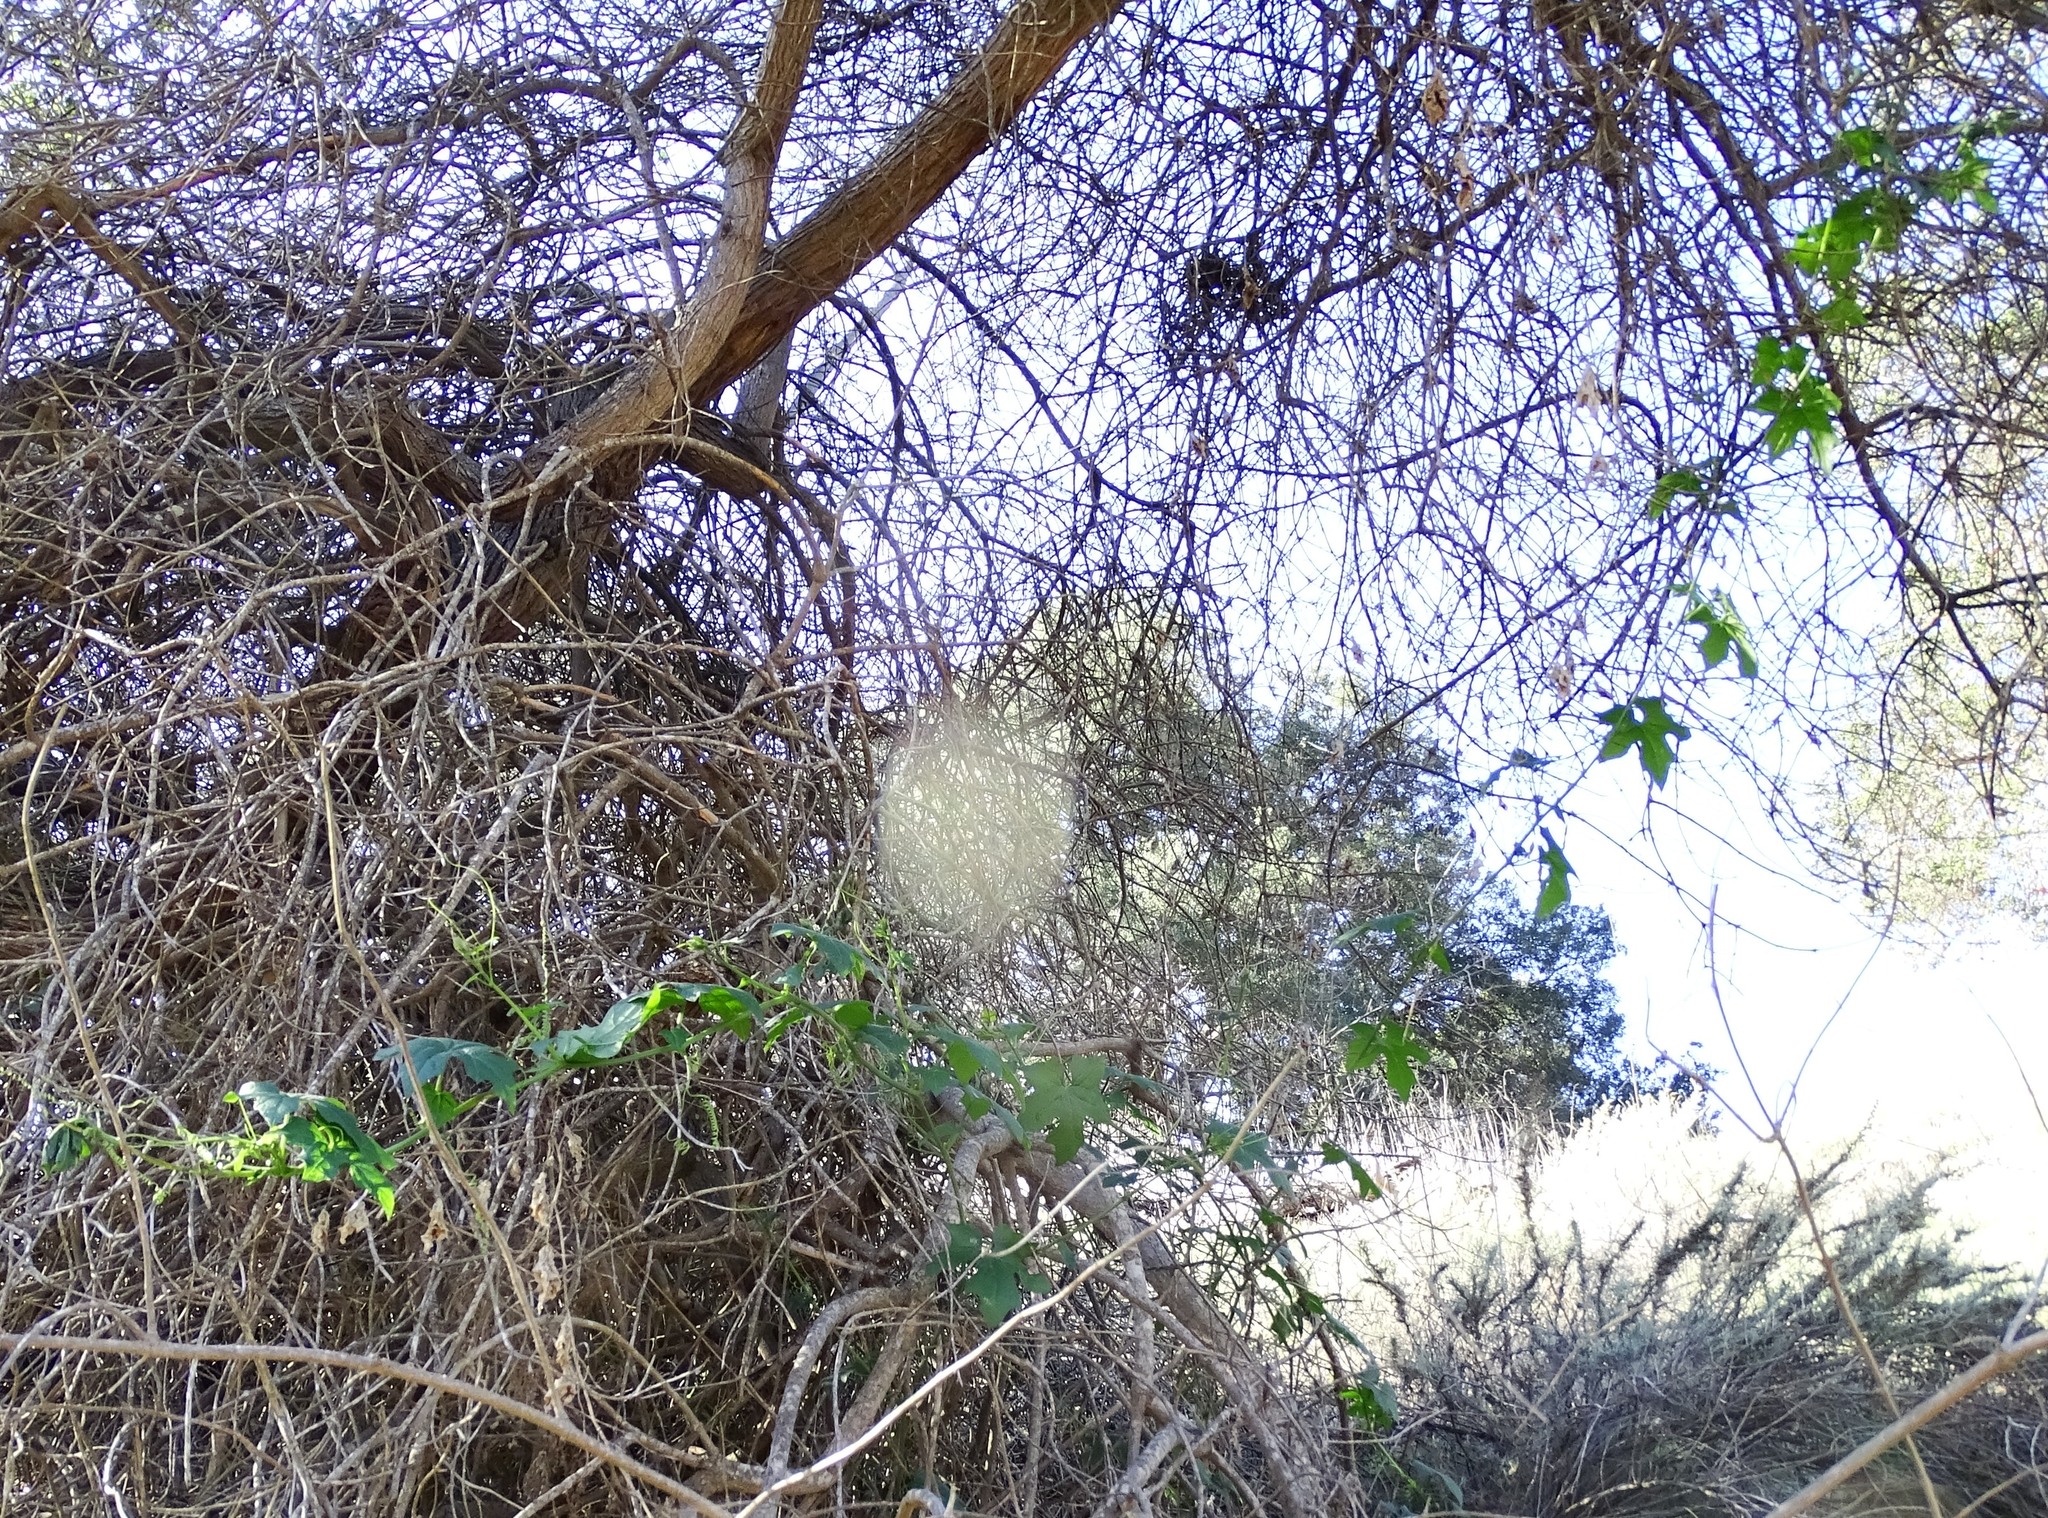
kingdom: Plantae
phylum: Tracheophyta
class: Magnoliopsida
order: Cucurbitales
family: Cucurbitaceae
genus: Marah
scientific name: Marah macrocarpa
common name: Cucamonga manroot
